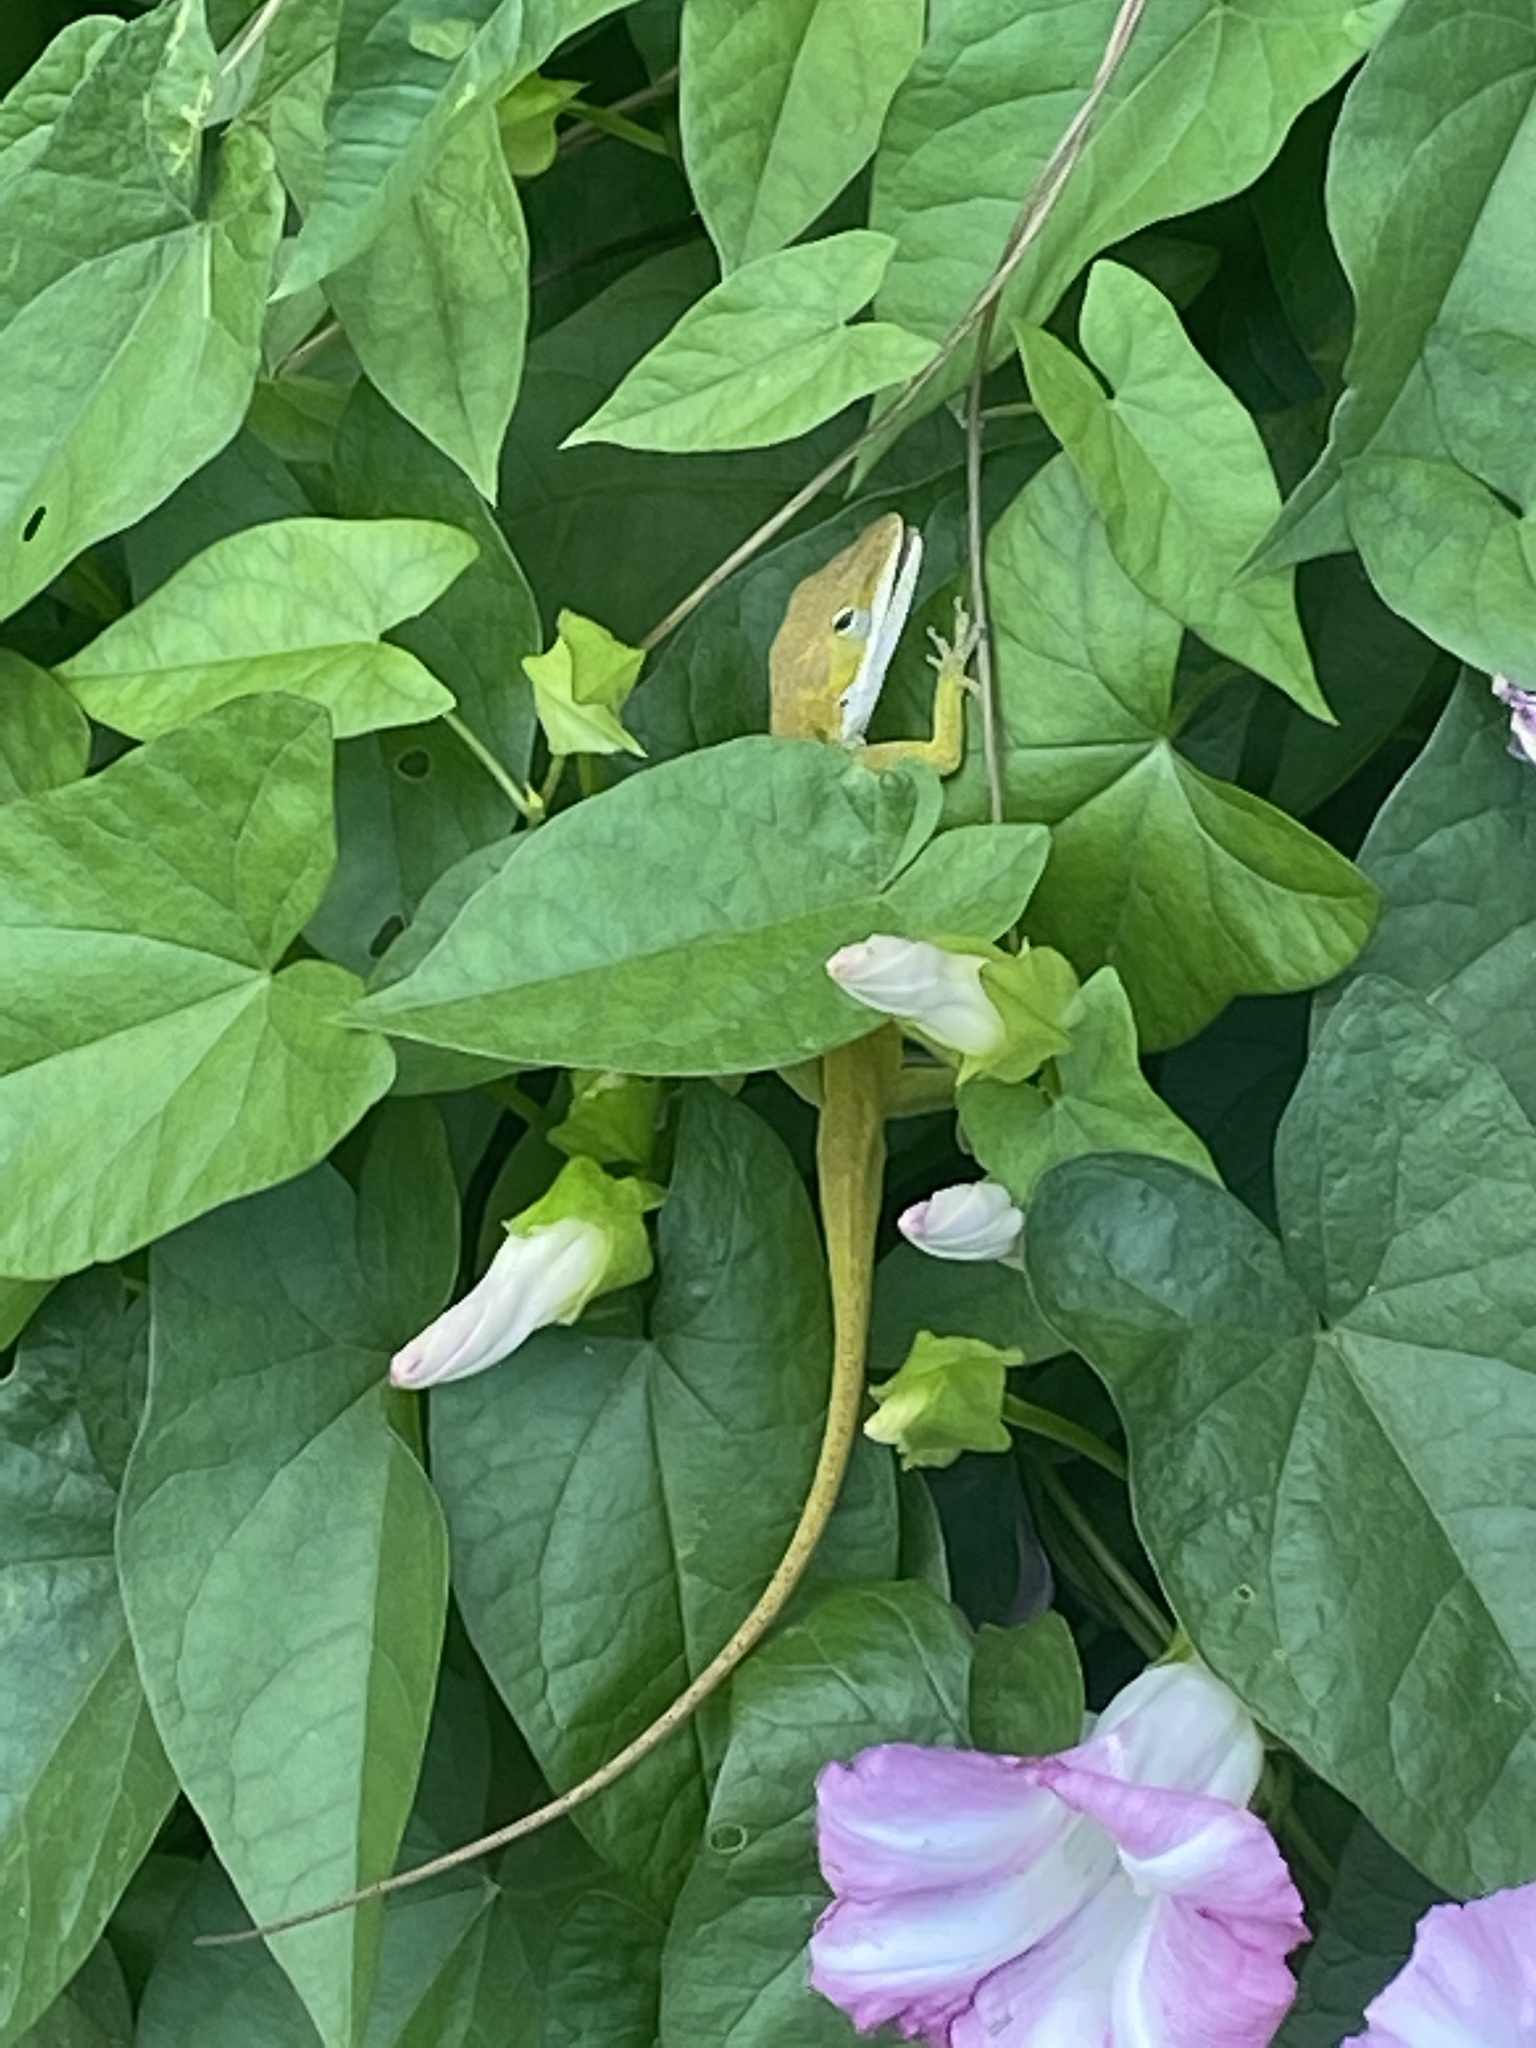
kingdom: Animalia
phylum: Chordata
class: Squamata
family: Dactyloidae
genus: Anolis
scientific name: Anolis carolinensis
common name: Green anole
